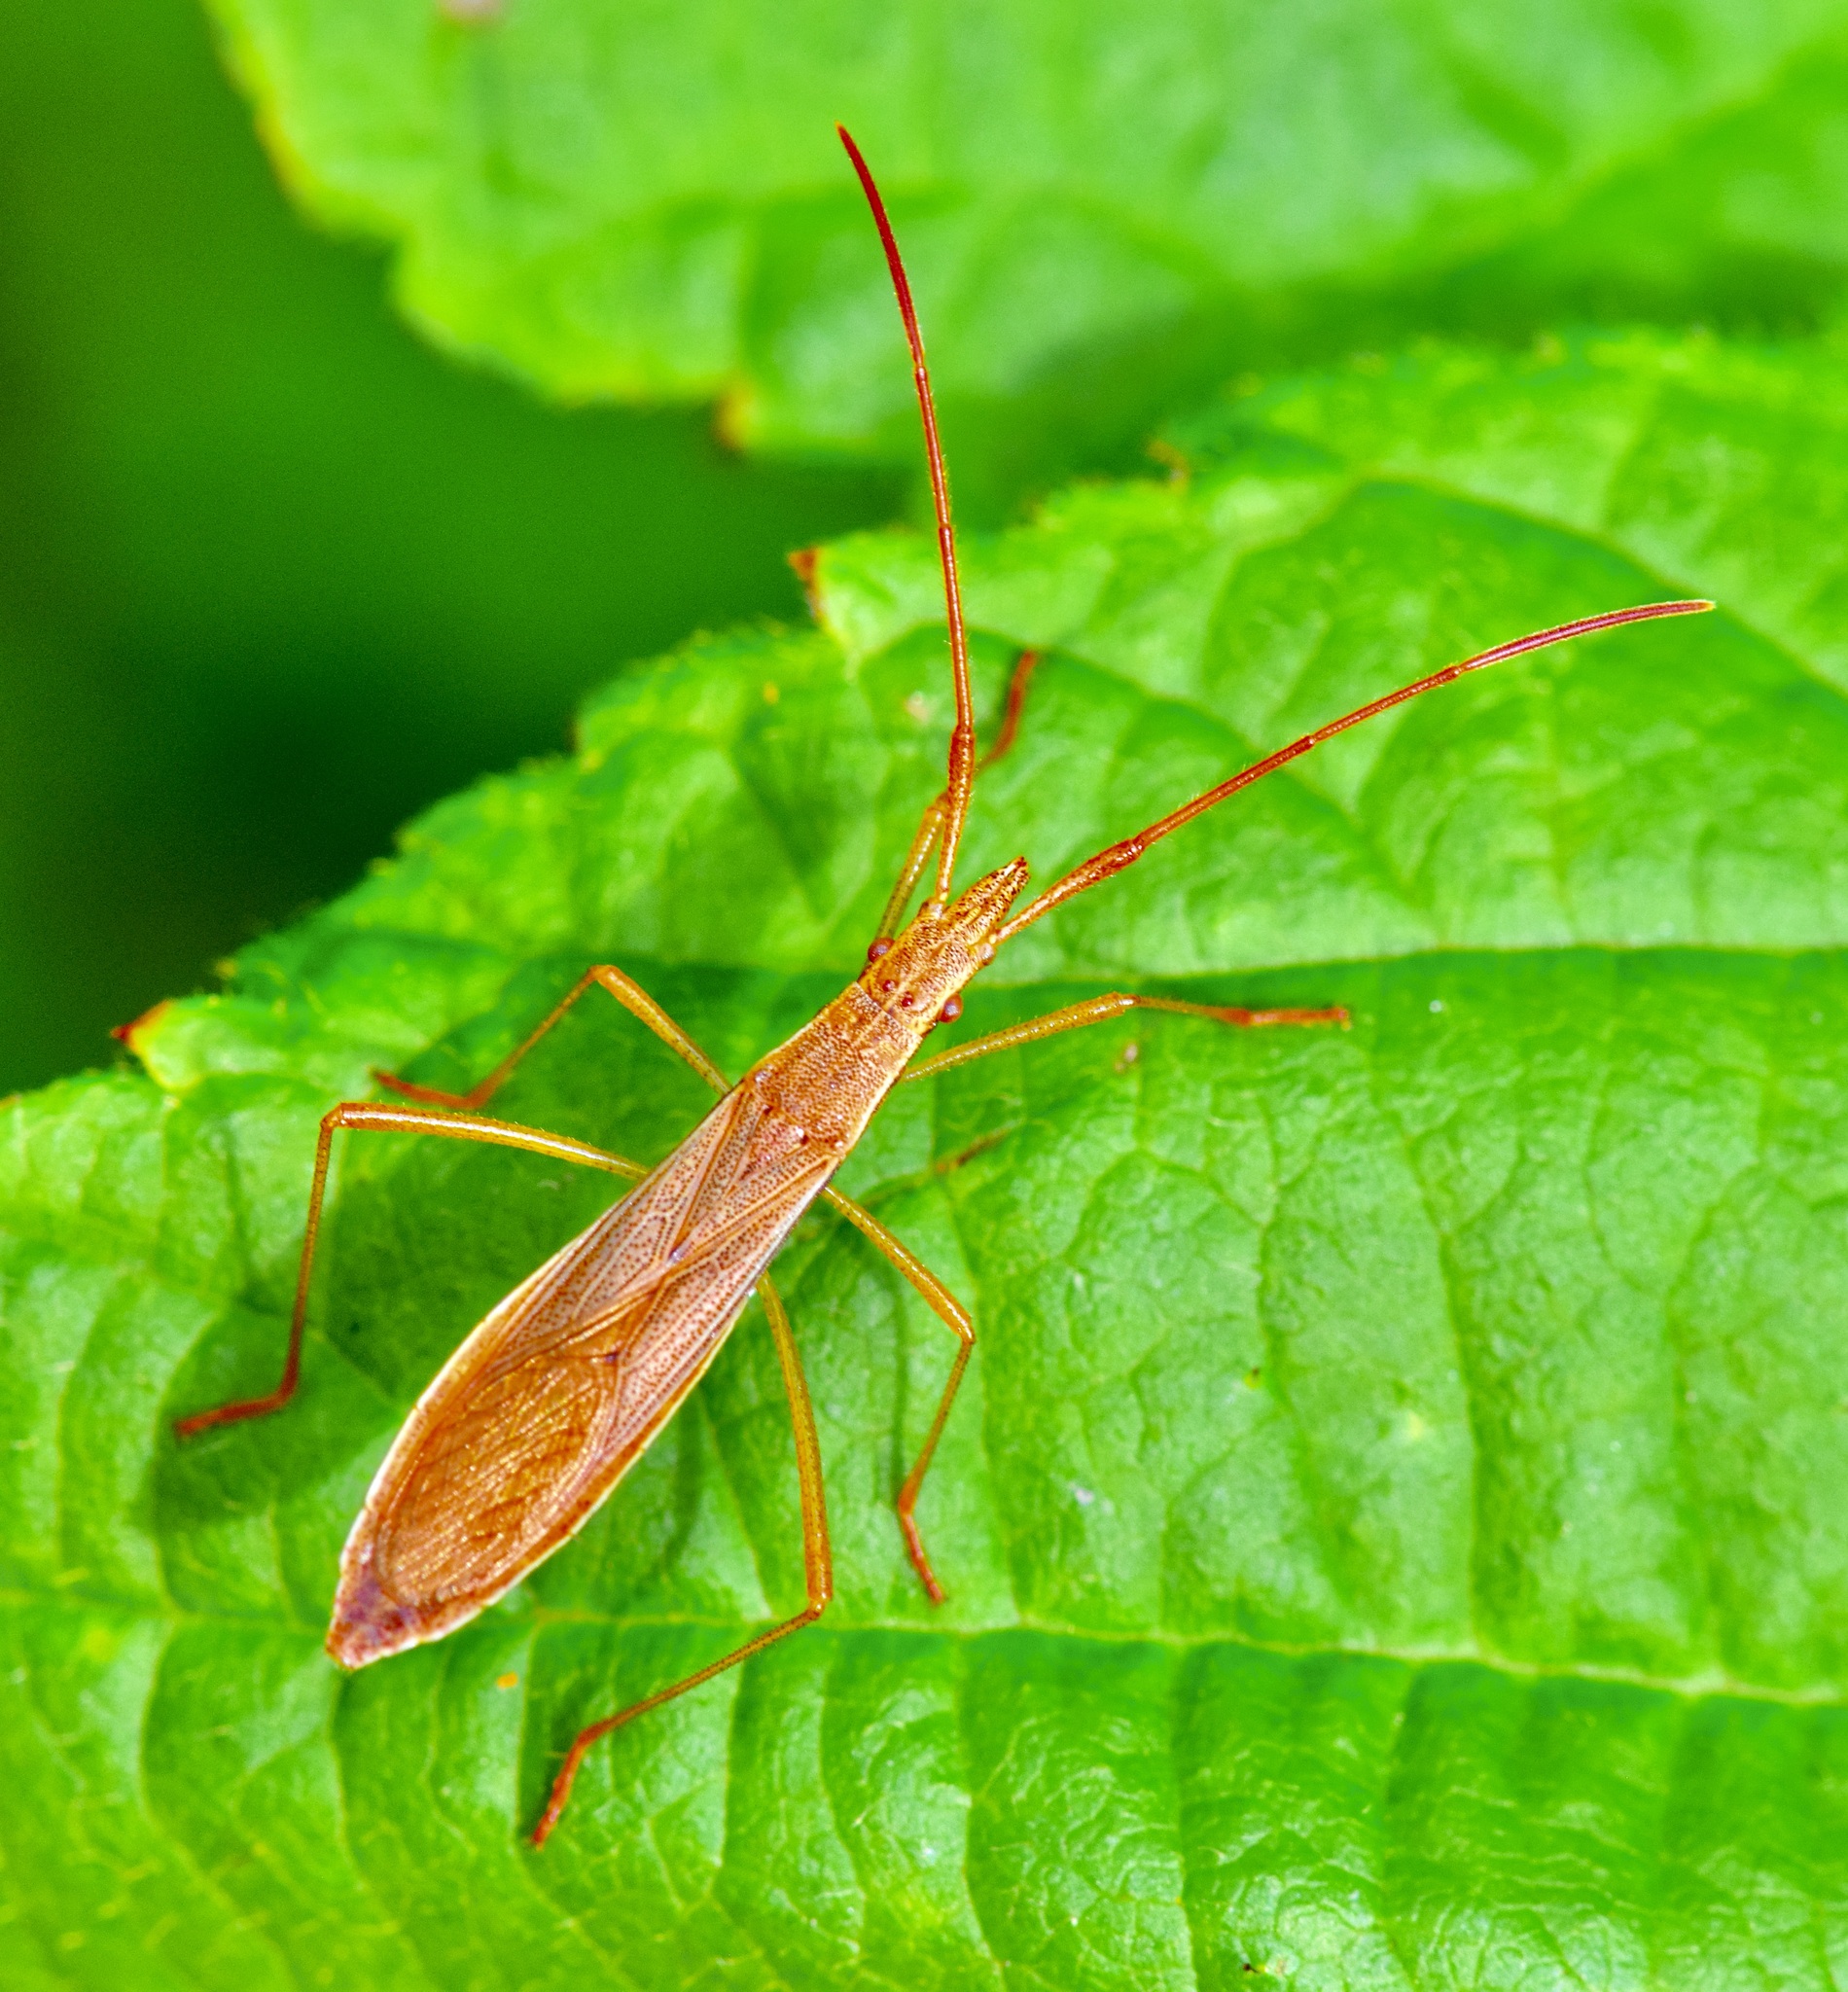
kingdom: Animalia
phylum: Arthropoda
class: Insecta
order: Hemiptera
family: Alydidae
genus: Protenor
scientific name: Protenor belfragei
